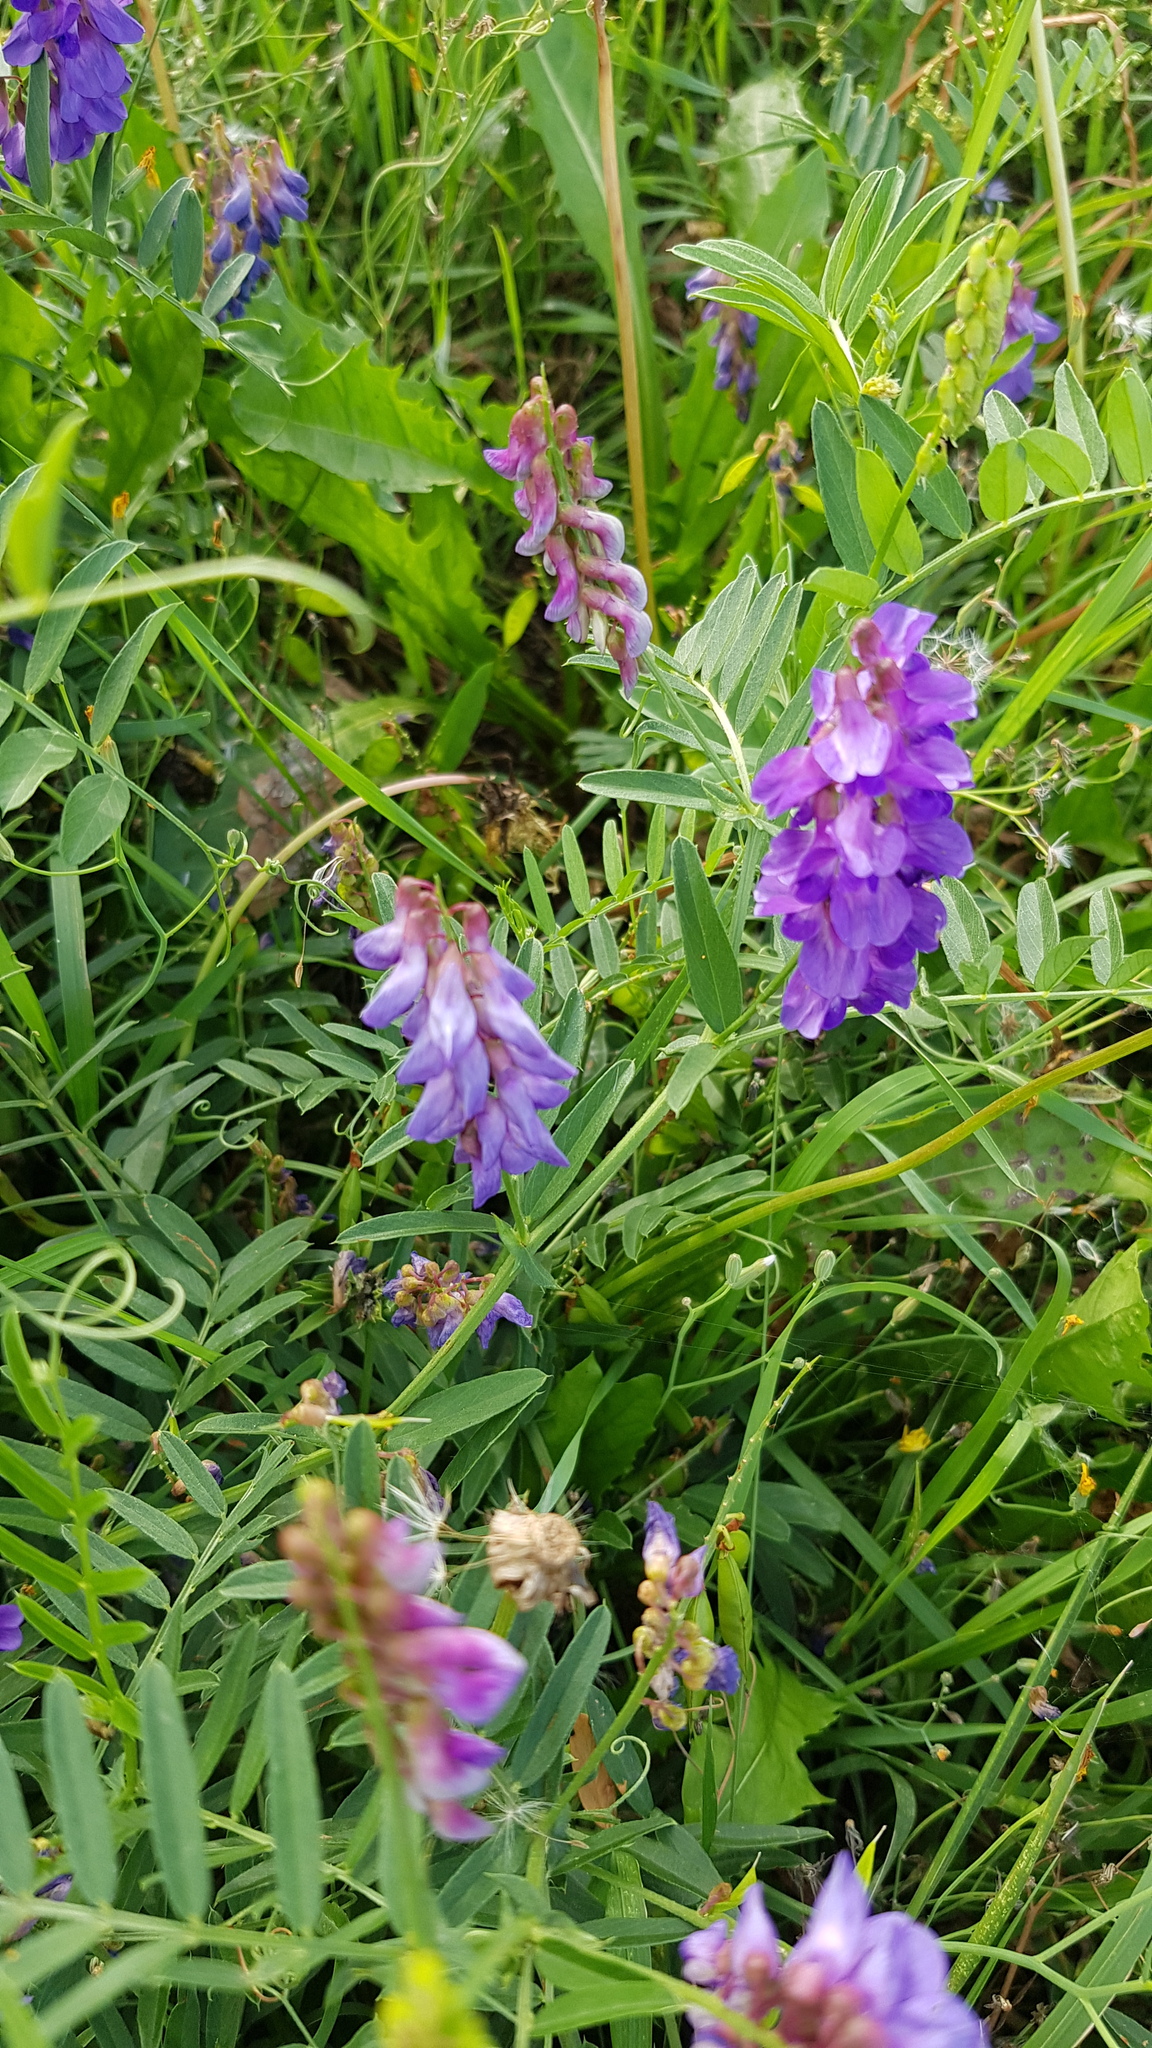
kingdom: Plantae
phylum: Tracheophyta
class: Magnoliopsida
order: Fabales
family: Fabaceae
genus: Vicia
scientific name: Vicia amoena
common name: Cheder ebs
